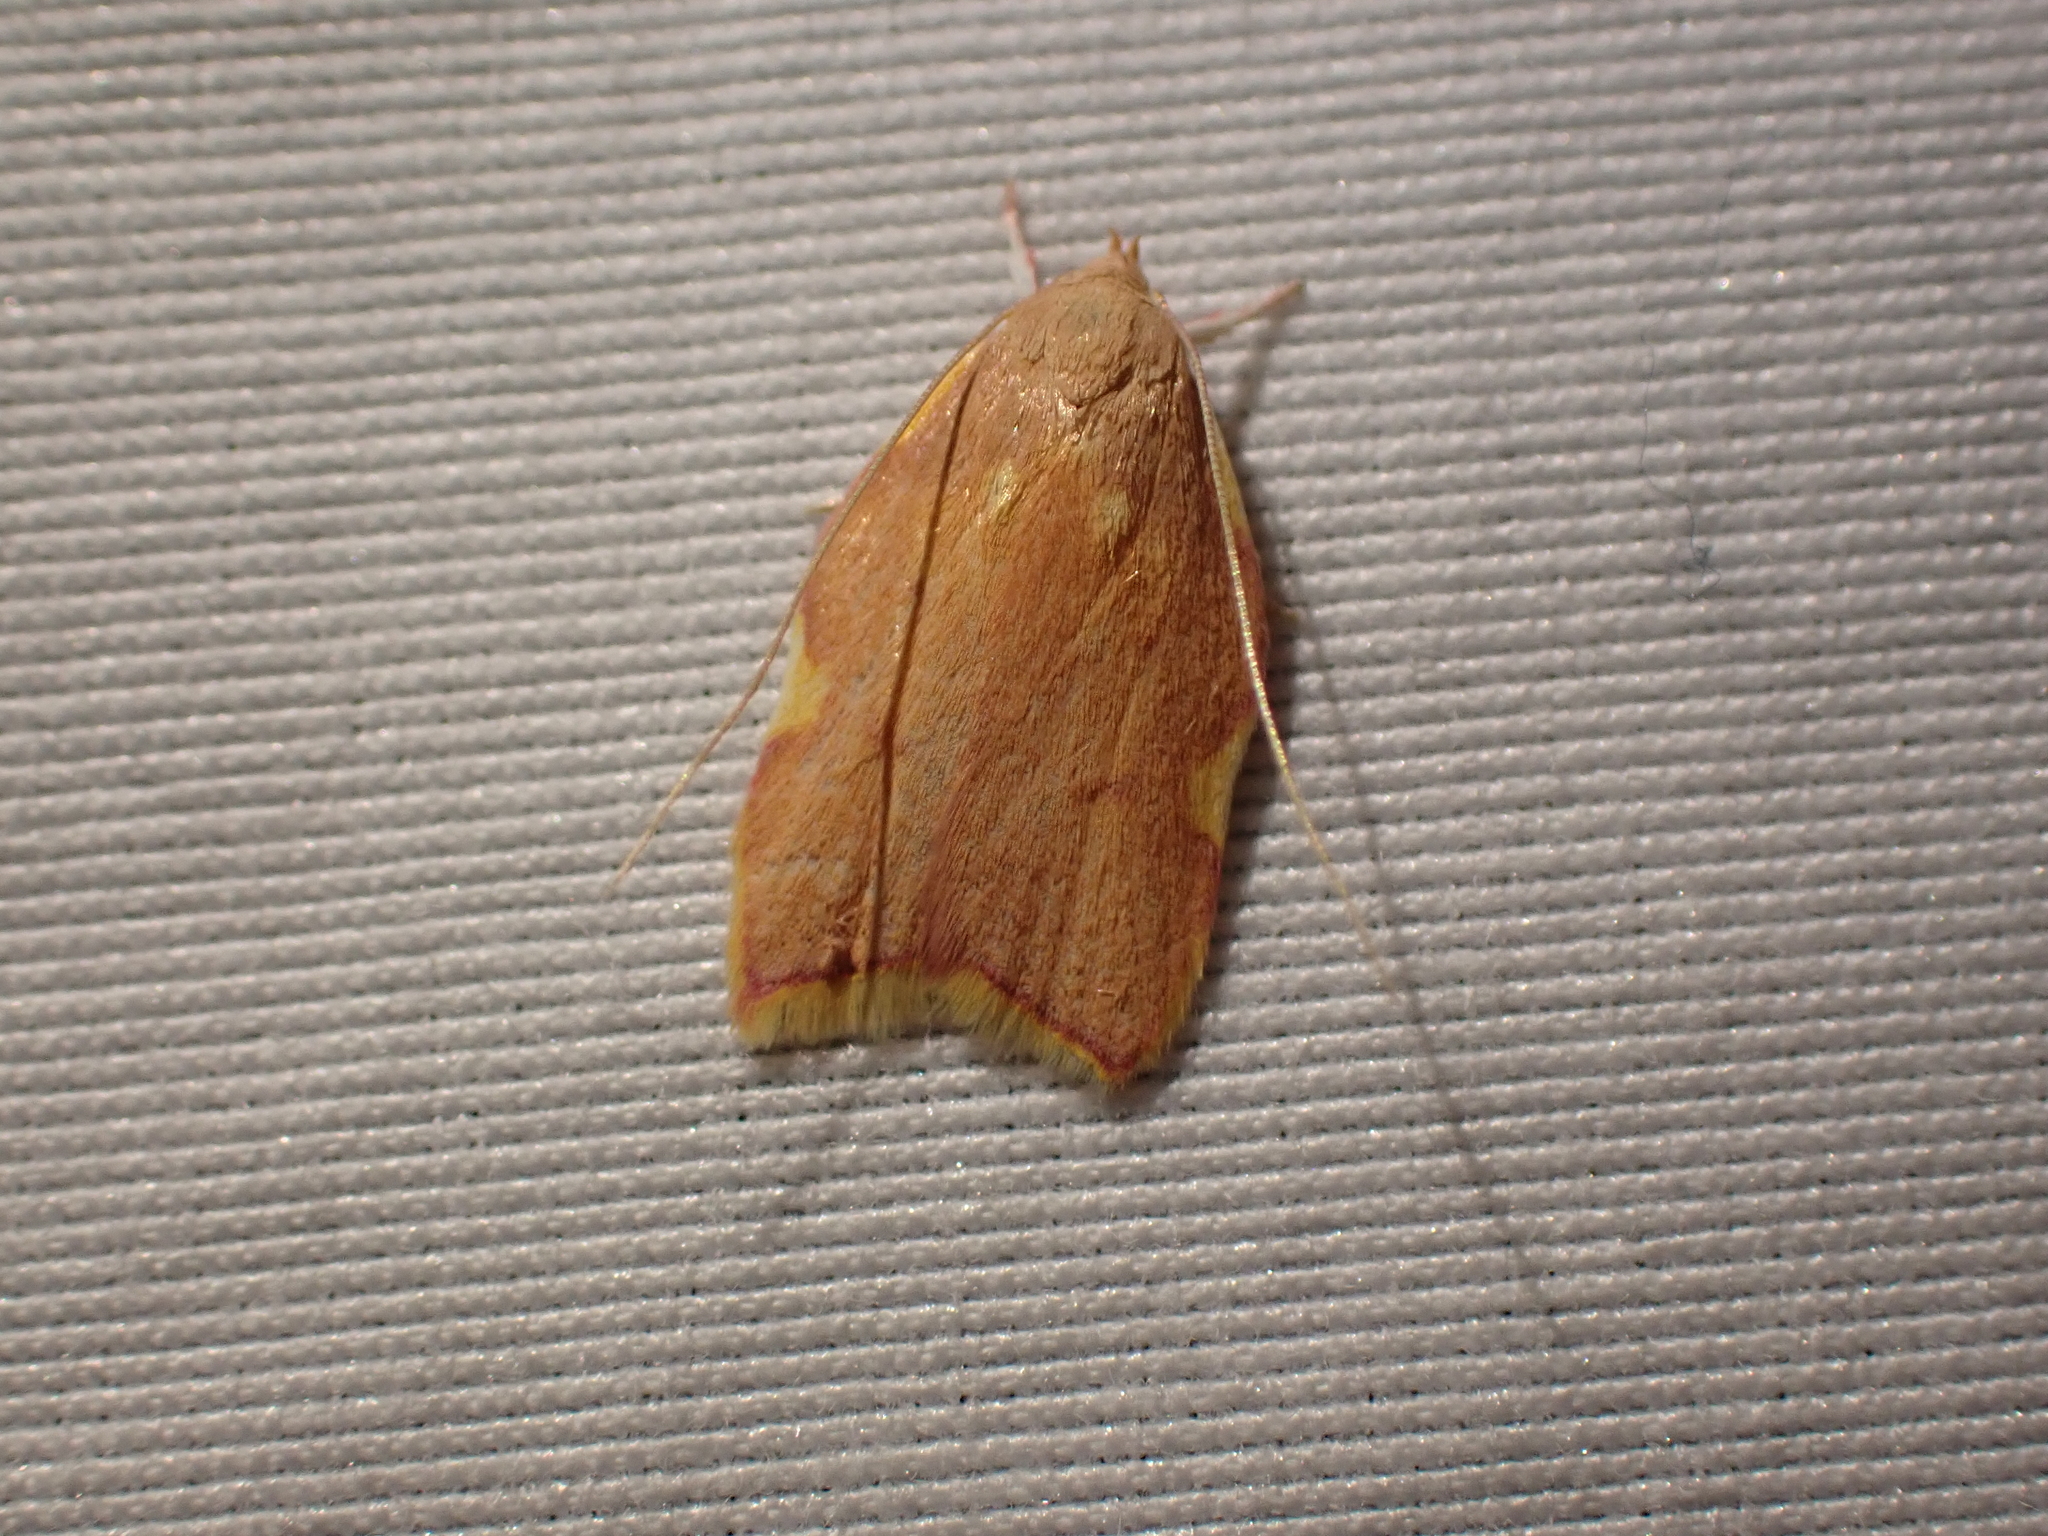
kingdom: Animalia
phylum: Arthropoda
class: Insecta
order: Lepidoptera
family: Peleopodidae
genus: Carcina
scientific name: Carcina quercana
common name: Moth
